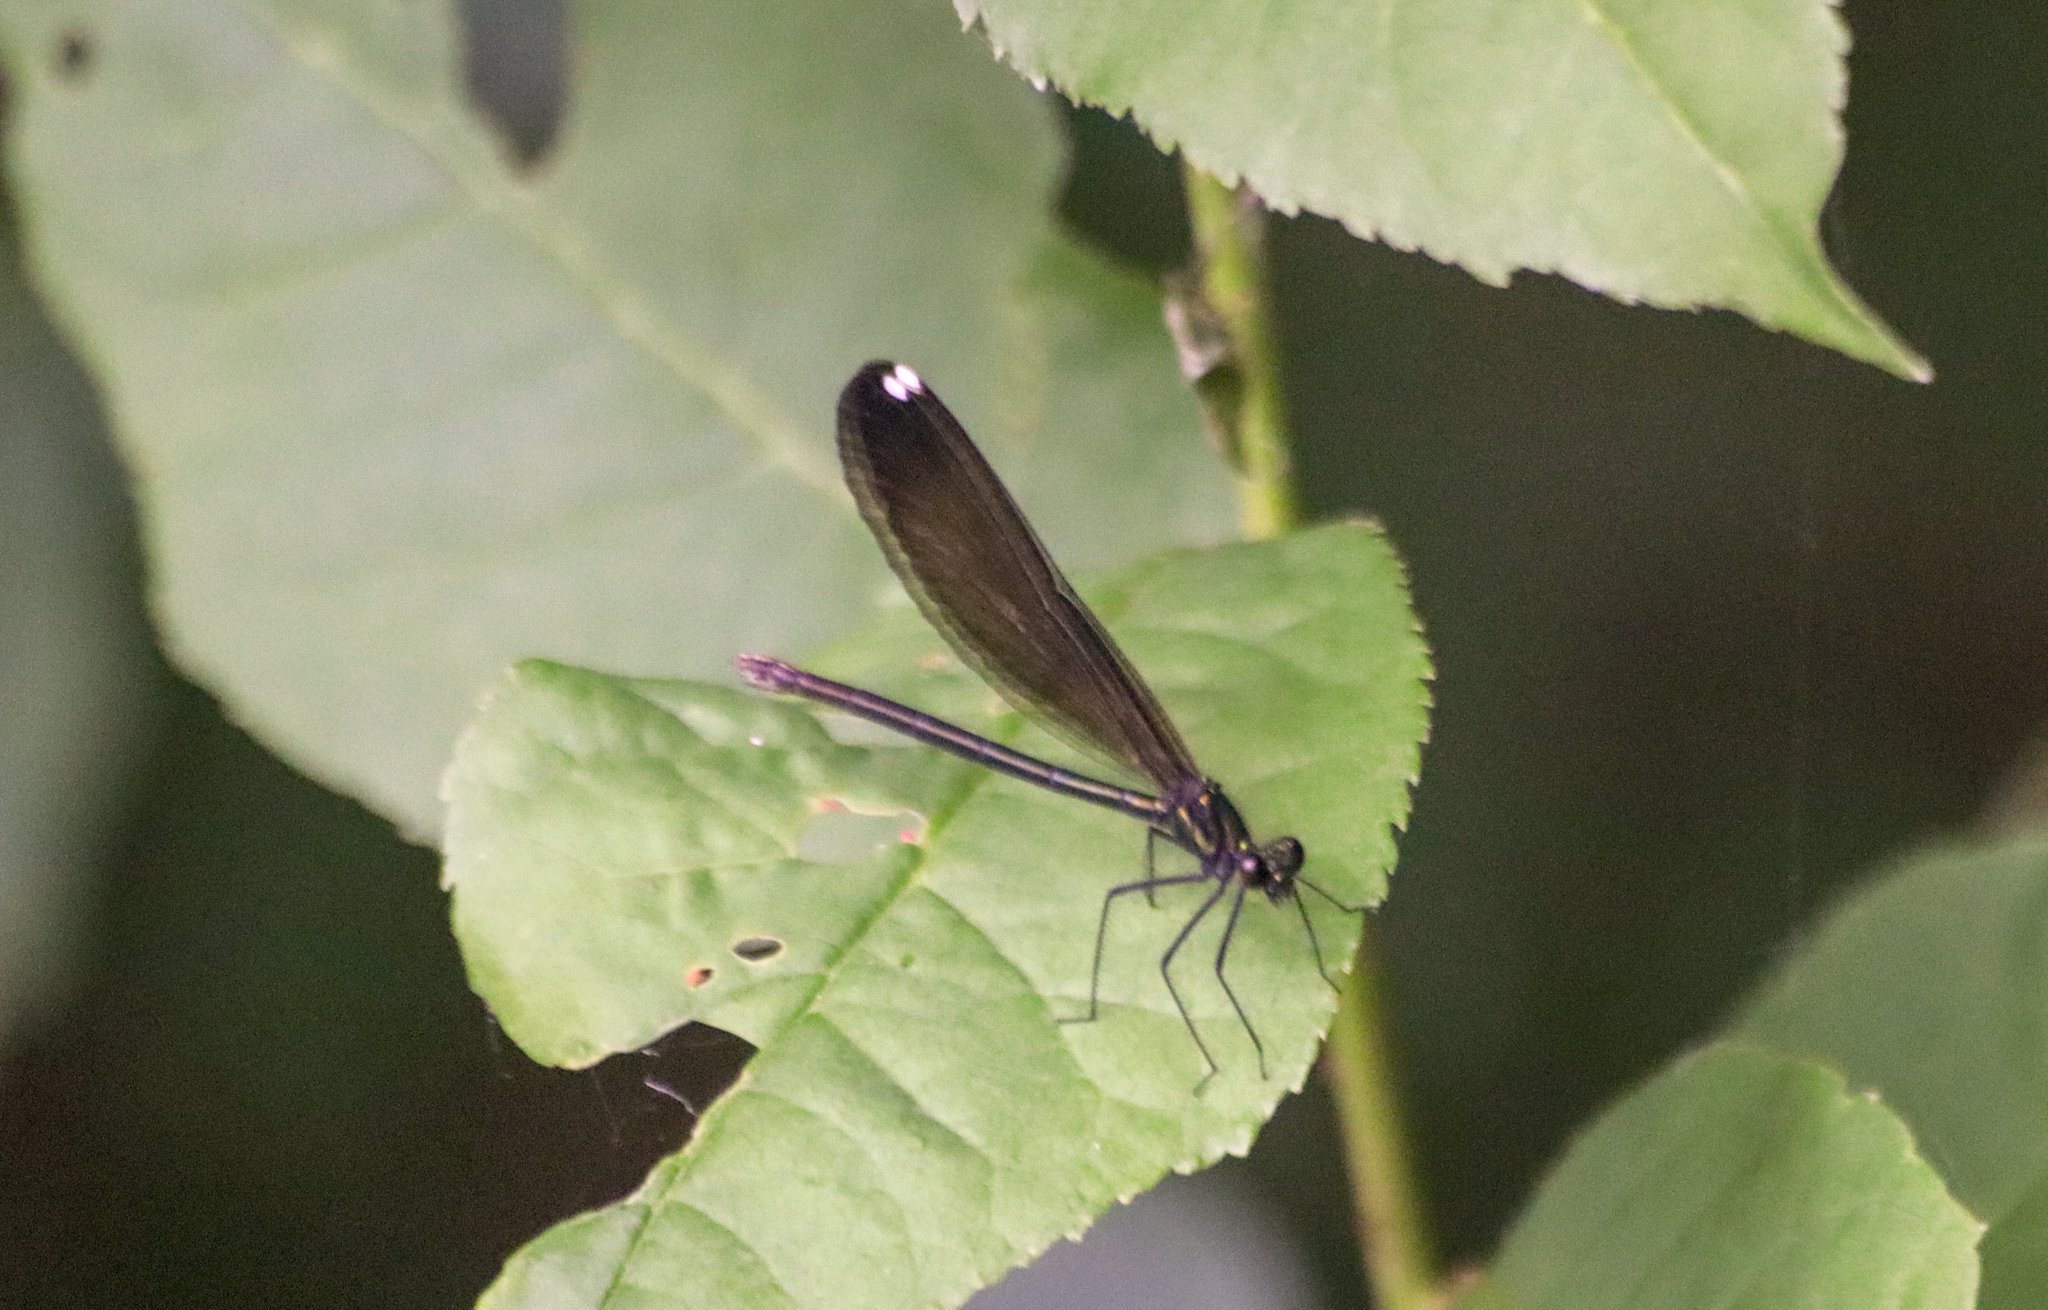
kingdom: Animalia
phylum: Arthropoda
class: Insecta
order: Odonata
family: Calopterygidae
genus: Calopteryx
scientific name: Calopteryx maculata
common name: Ebony jewelwing
